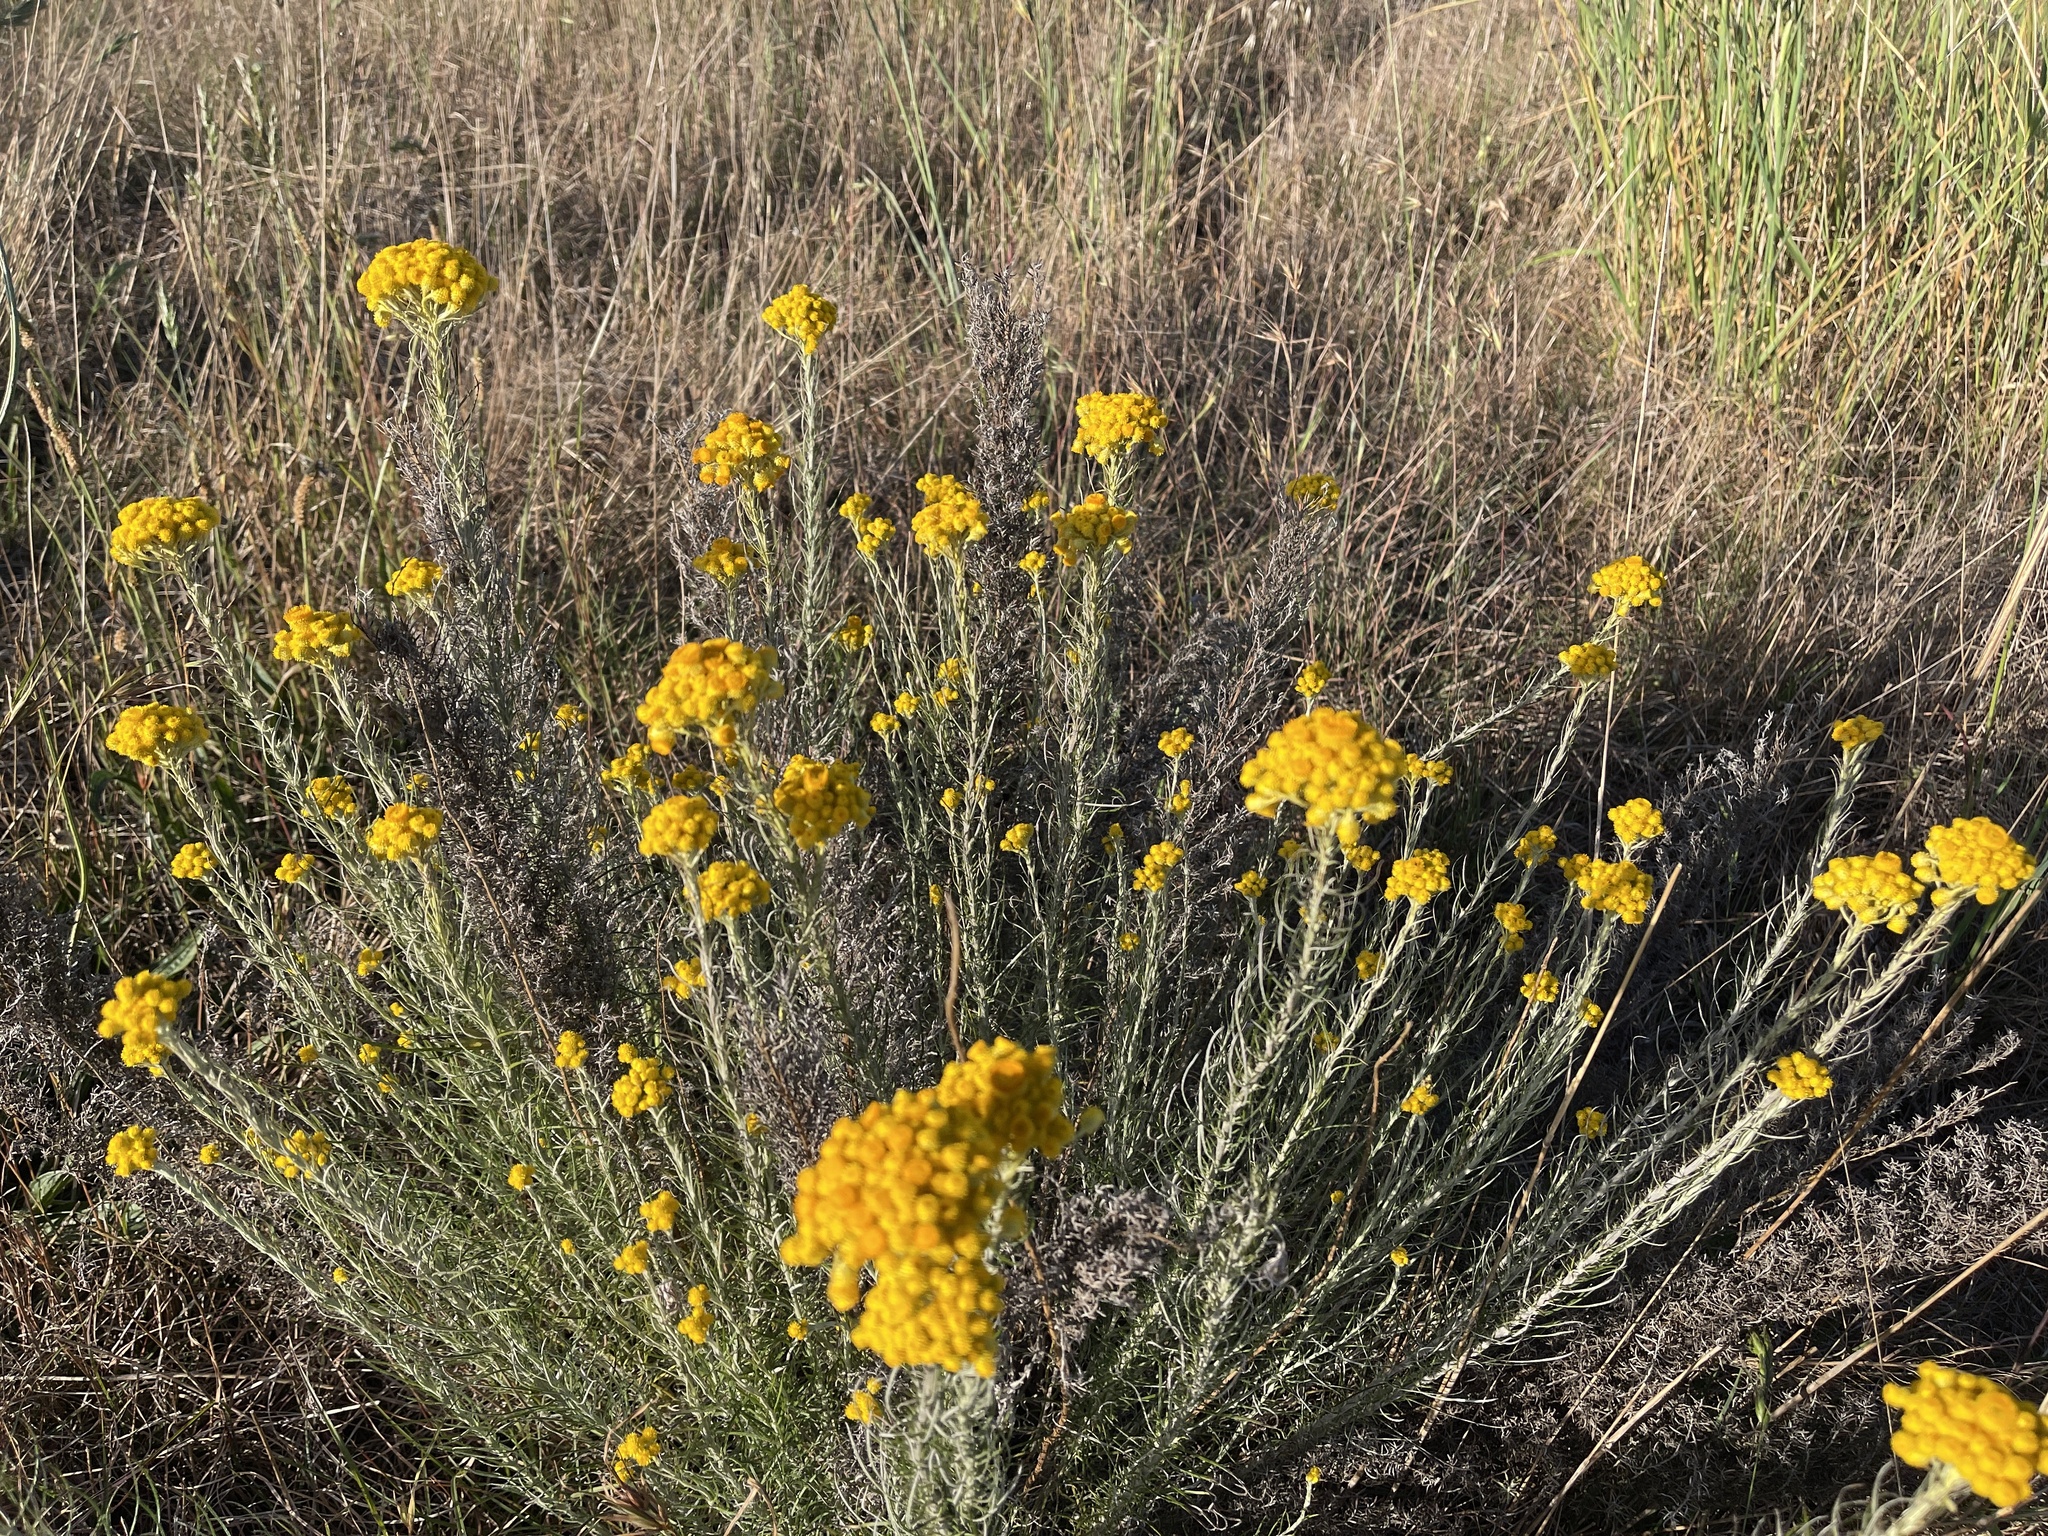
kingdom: Plantae
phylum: Tracheophyta
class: Magnoliopsida
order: Asterales
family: Asteraceae
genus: Chrysocephalum
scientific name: Chrysocephalum semipapposum
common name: Clustered everlasting
